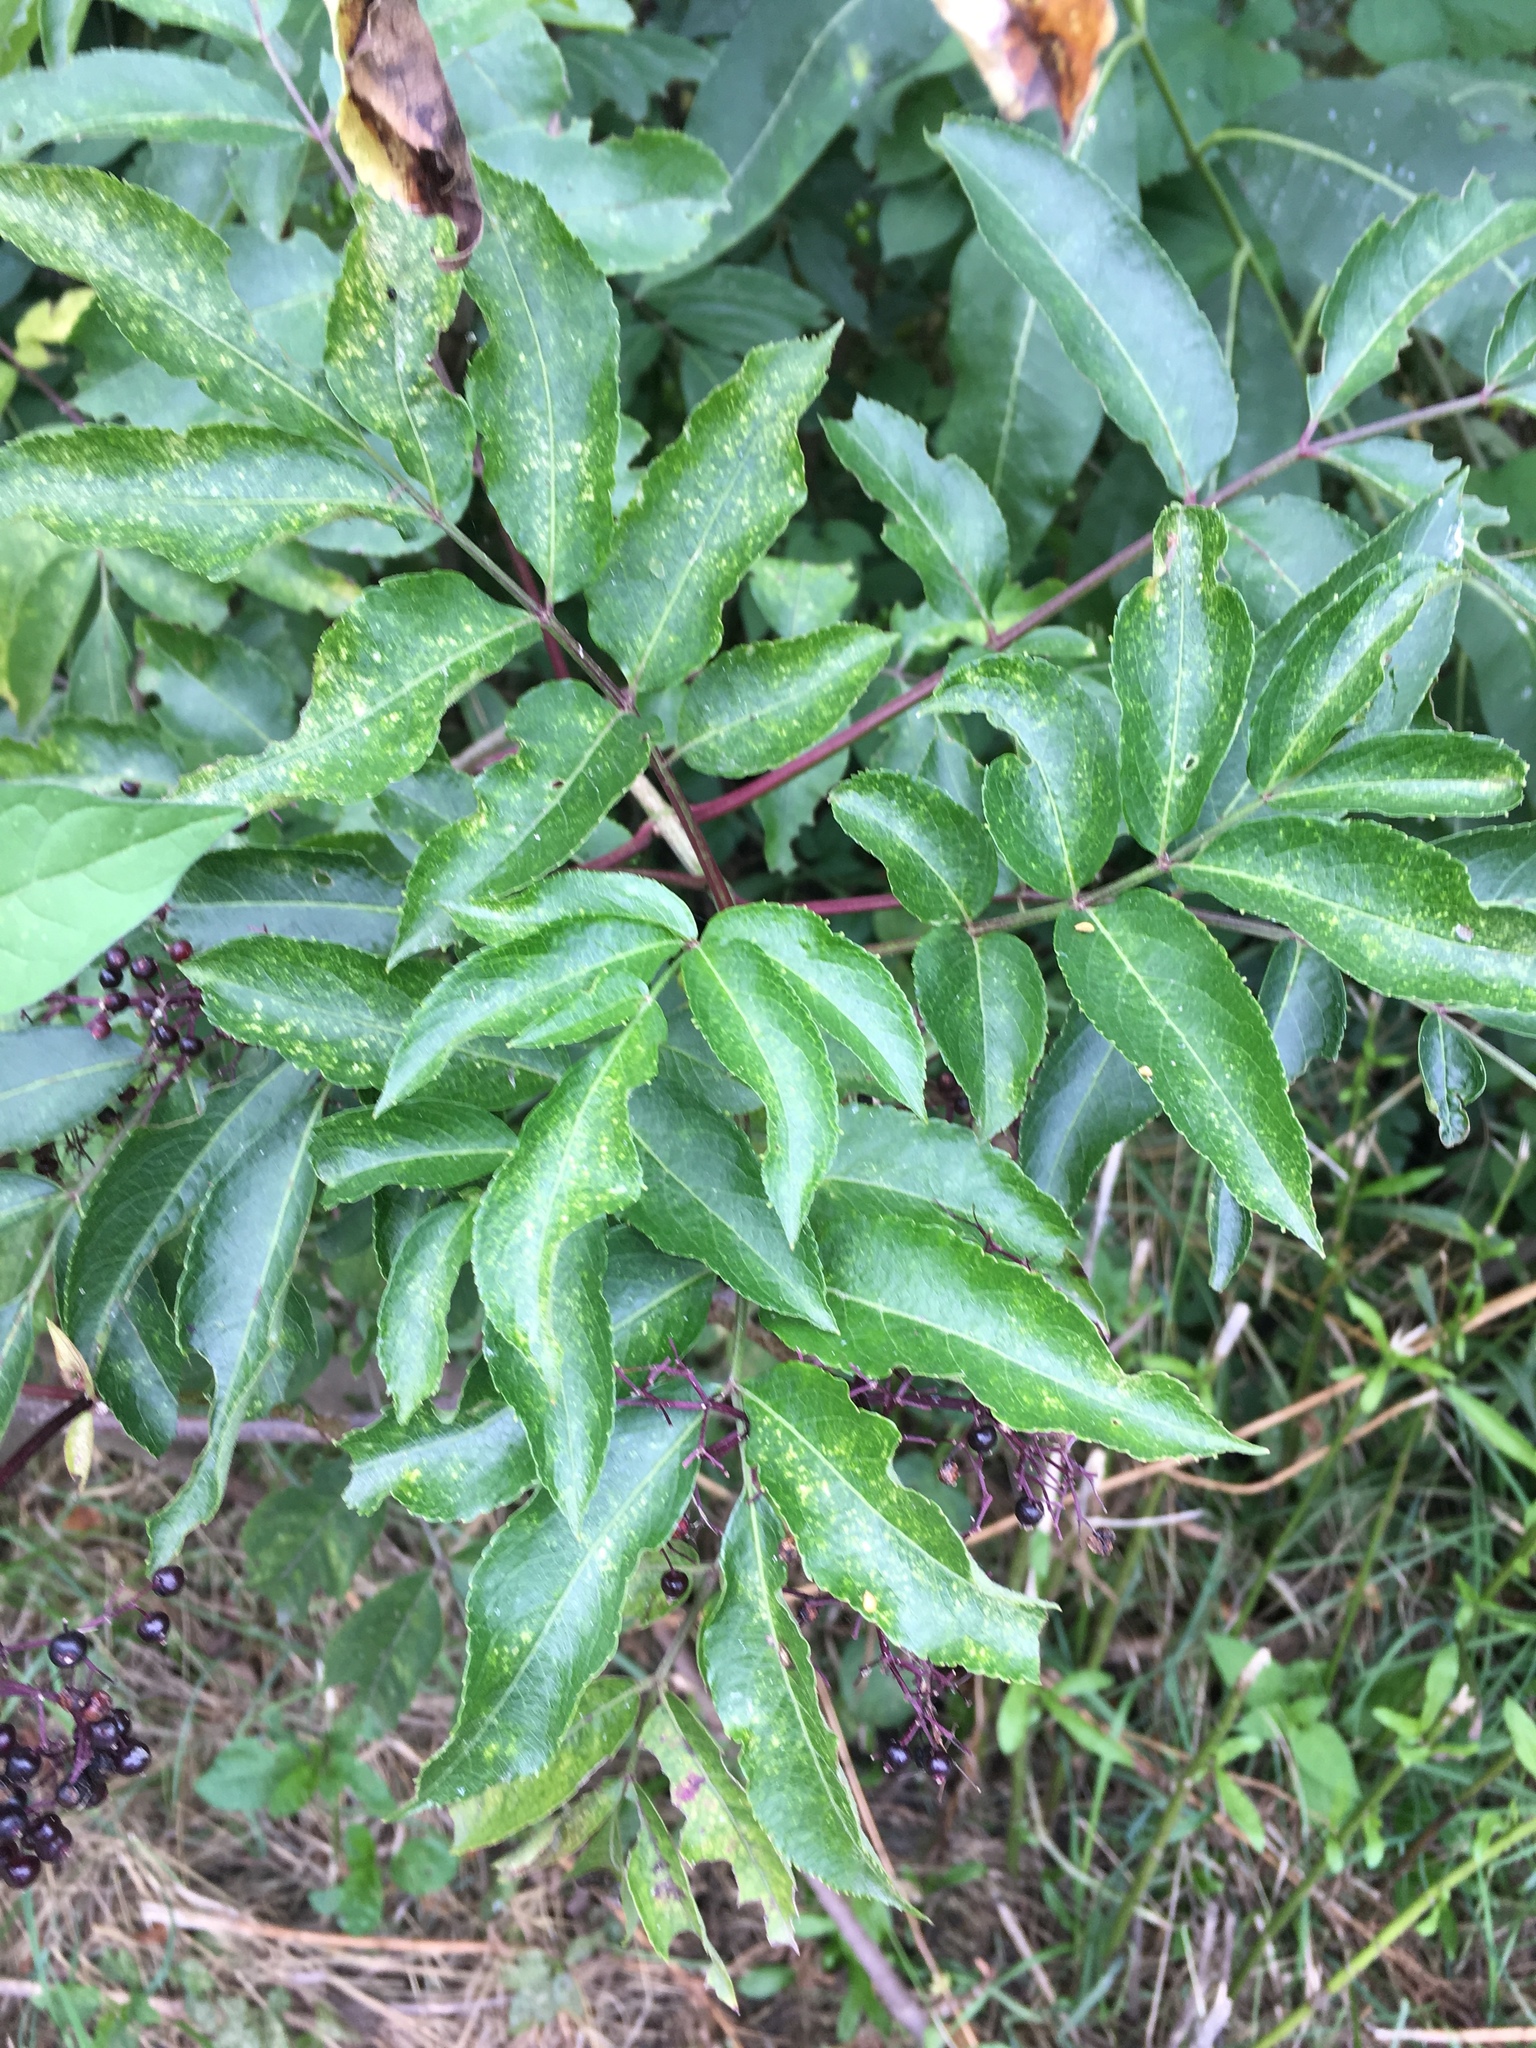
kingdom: Plantae
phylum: Tracheophyta
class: Magnoliopsida
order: Dipsacales
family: Viburnaceae
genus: Sambucus
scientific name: Sambucus canadensis
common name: American elder
